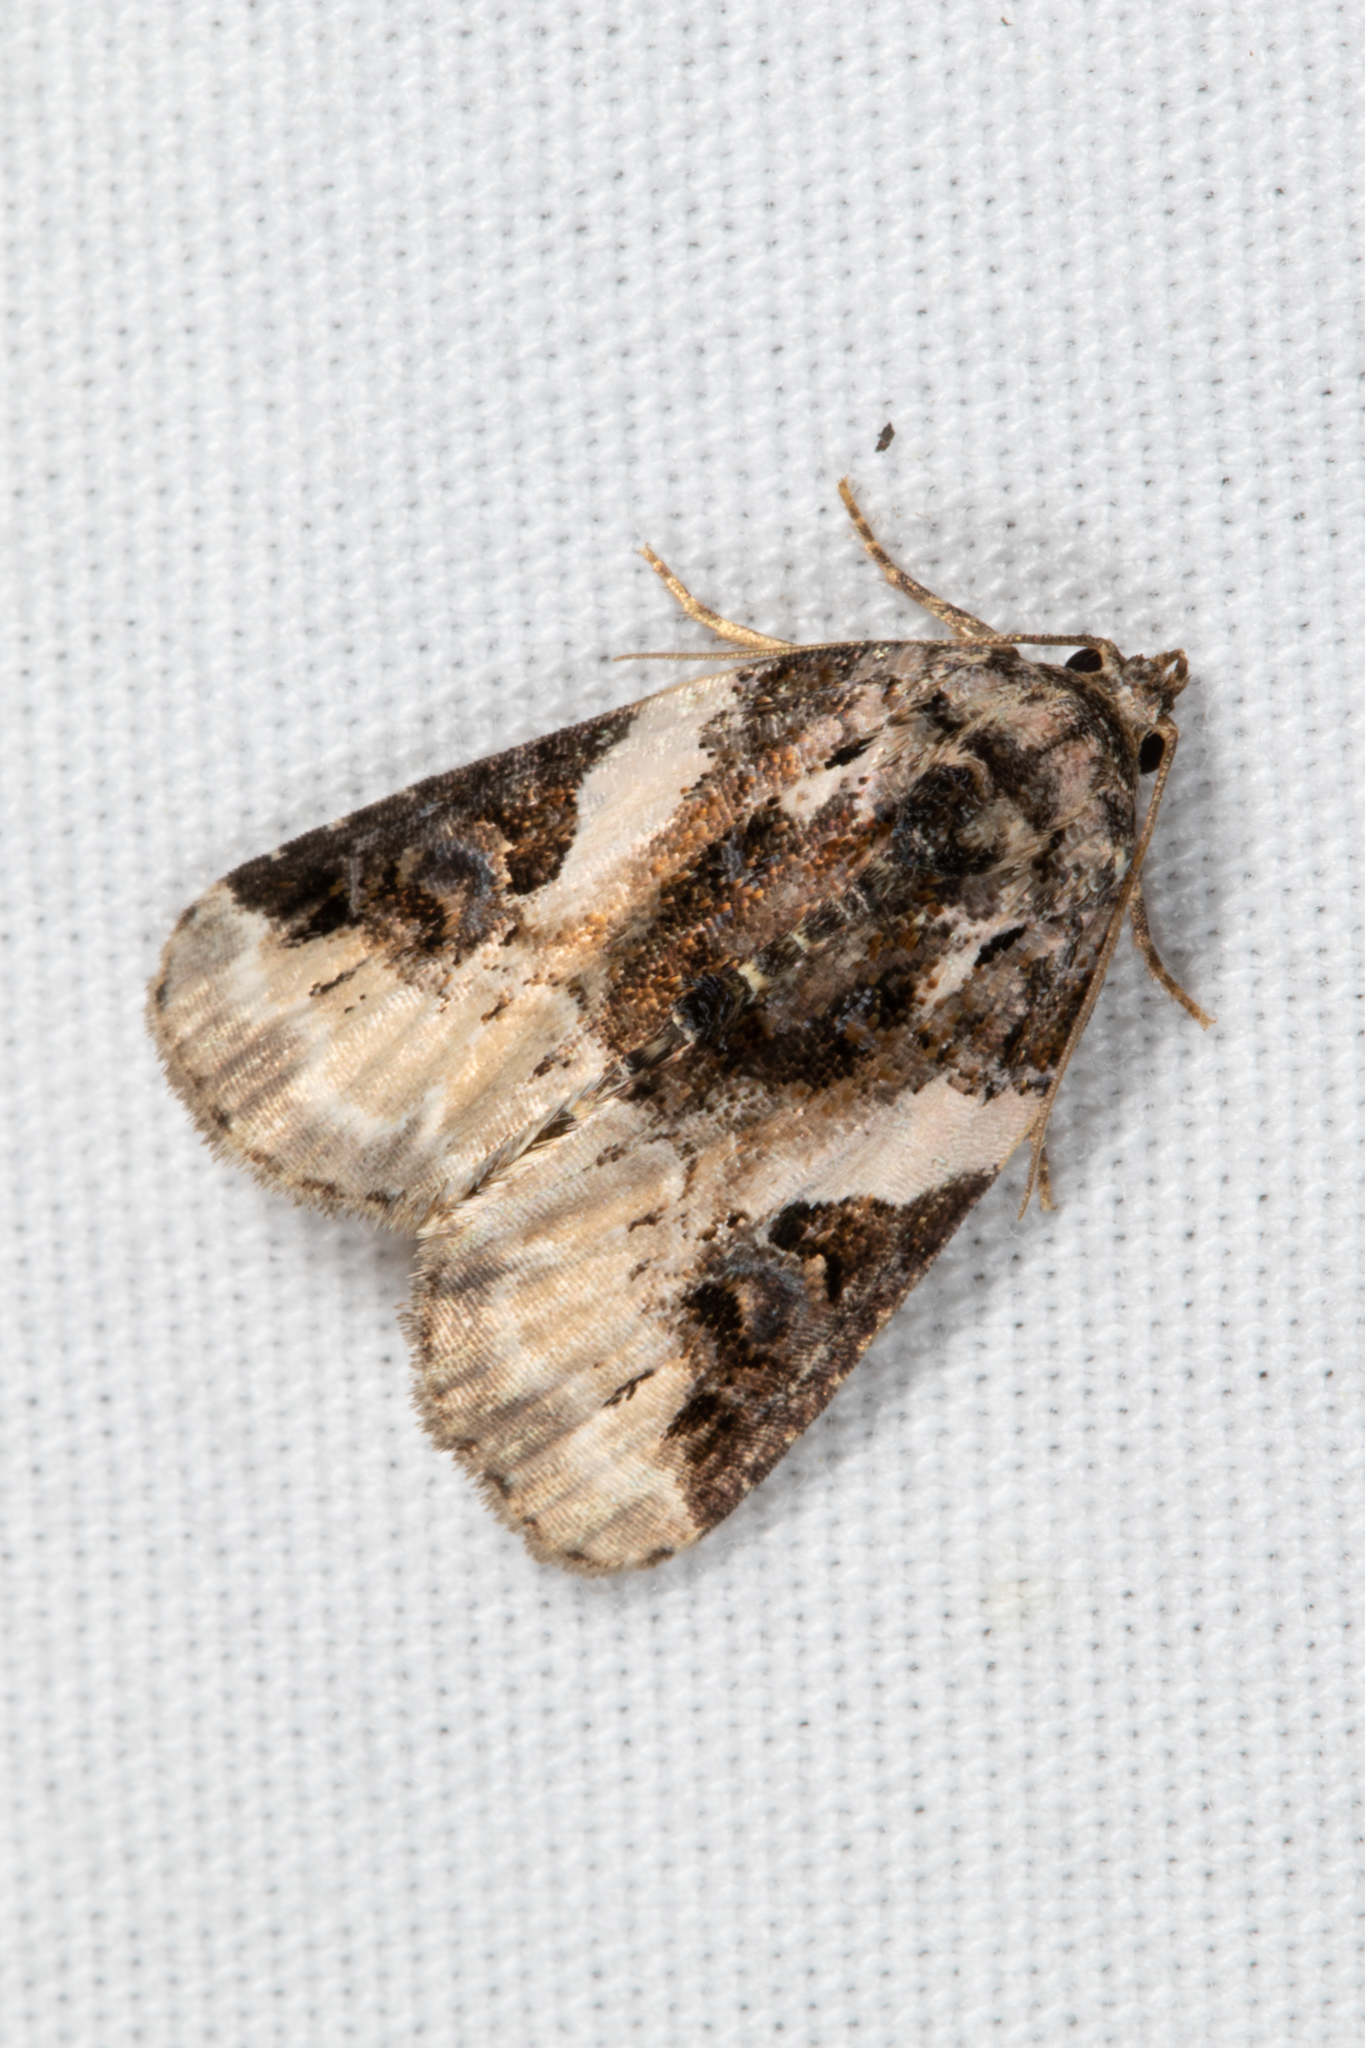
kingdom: Animalia
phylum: Arthropoda
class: Insecta
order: Lepidoptera
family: Noctuidae
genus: Pseudeustrotia
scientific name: Pseudeustrotia carneola
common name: Pink-barred lithacodia moth
